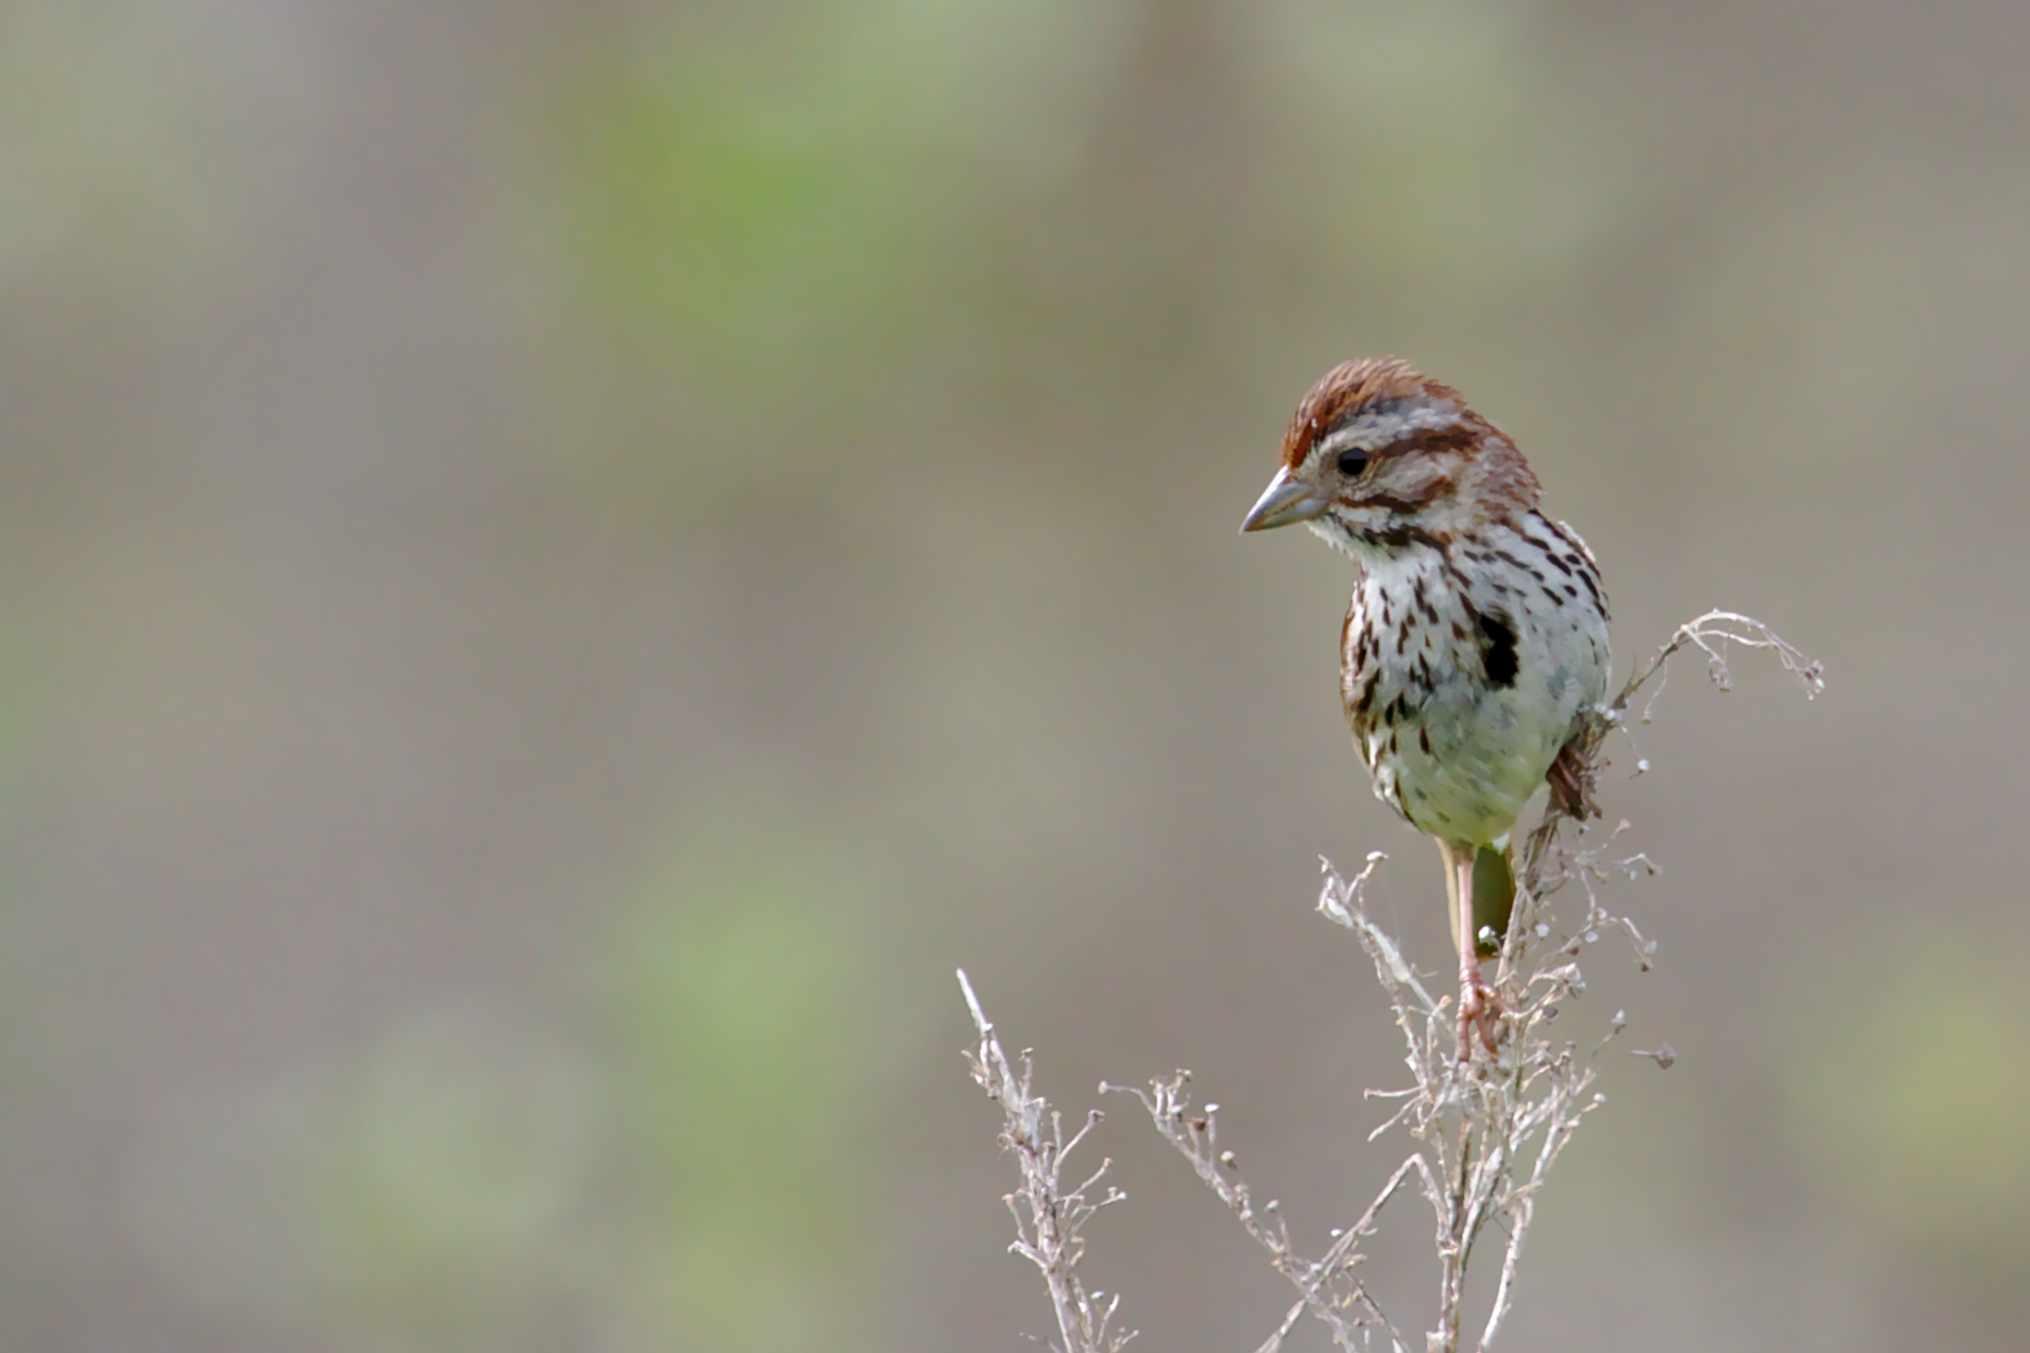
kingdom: Animalia
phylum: Chordata
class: Aves
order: Passeriformes
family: Passerellidae
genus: Melospiza
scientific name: Melospiza melodia
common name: Song sparrow
